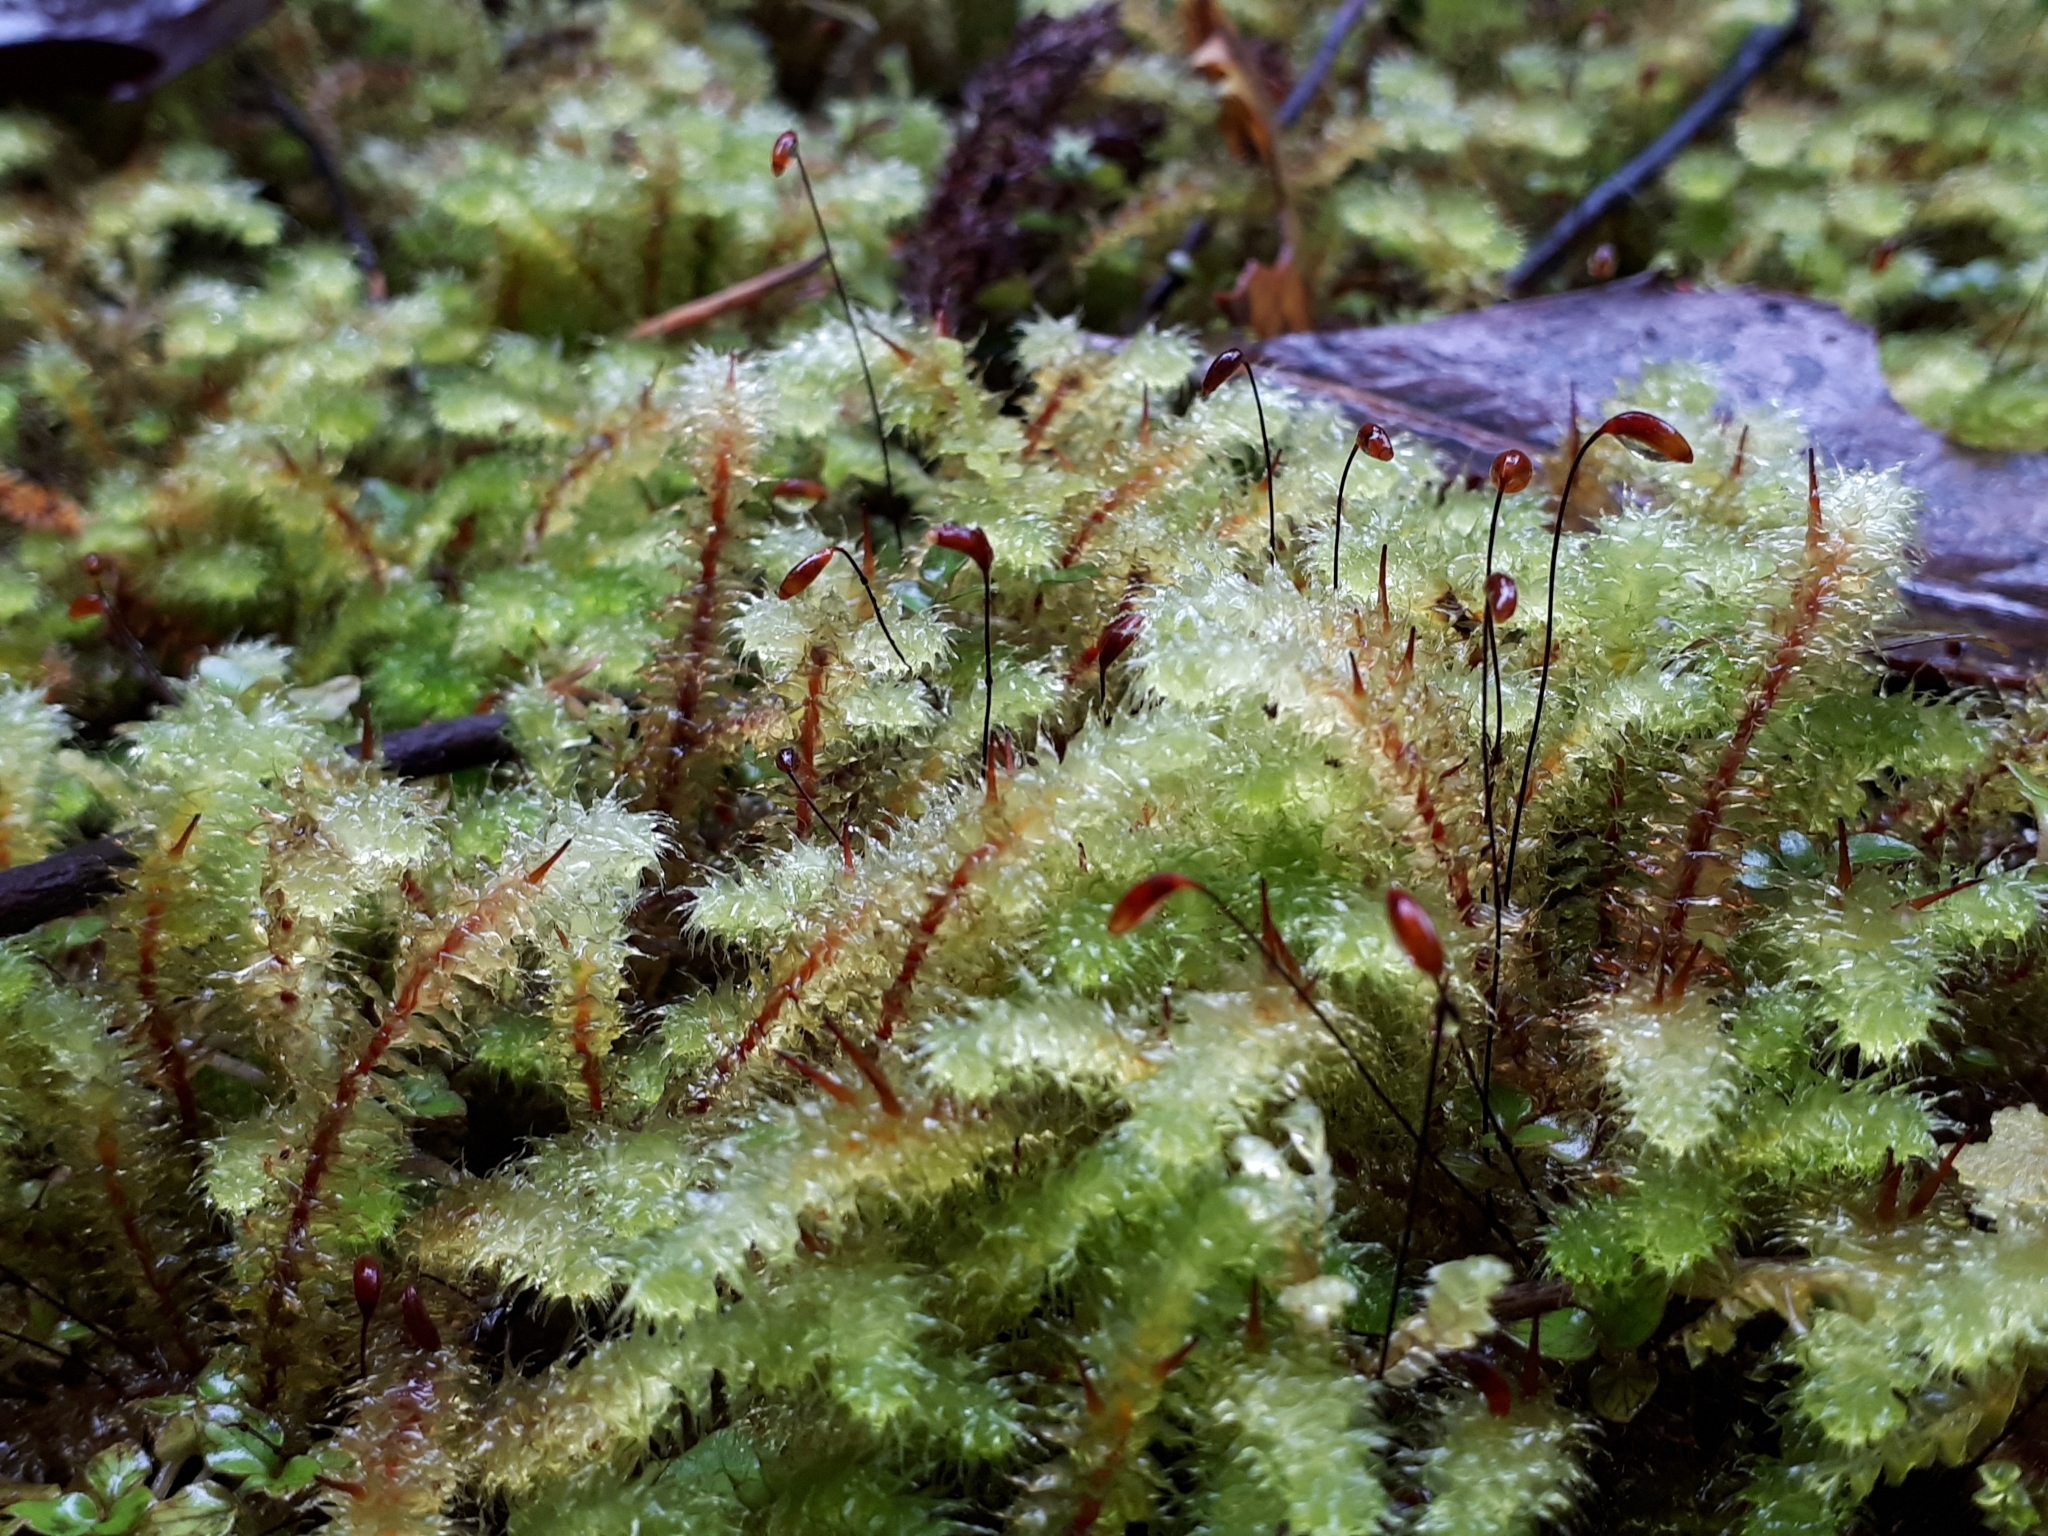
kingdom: Plantae
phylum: Bryophyta
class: Bryopsida
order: Ptychomniales
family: Ptychomniaceae
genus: Ptychomnion
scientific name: Ptychomnion aciculare
